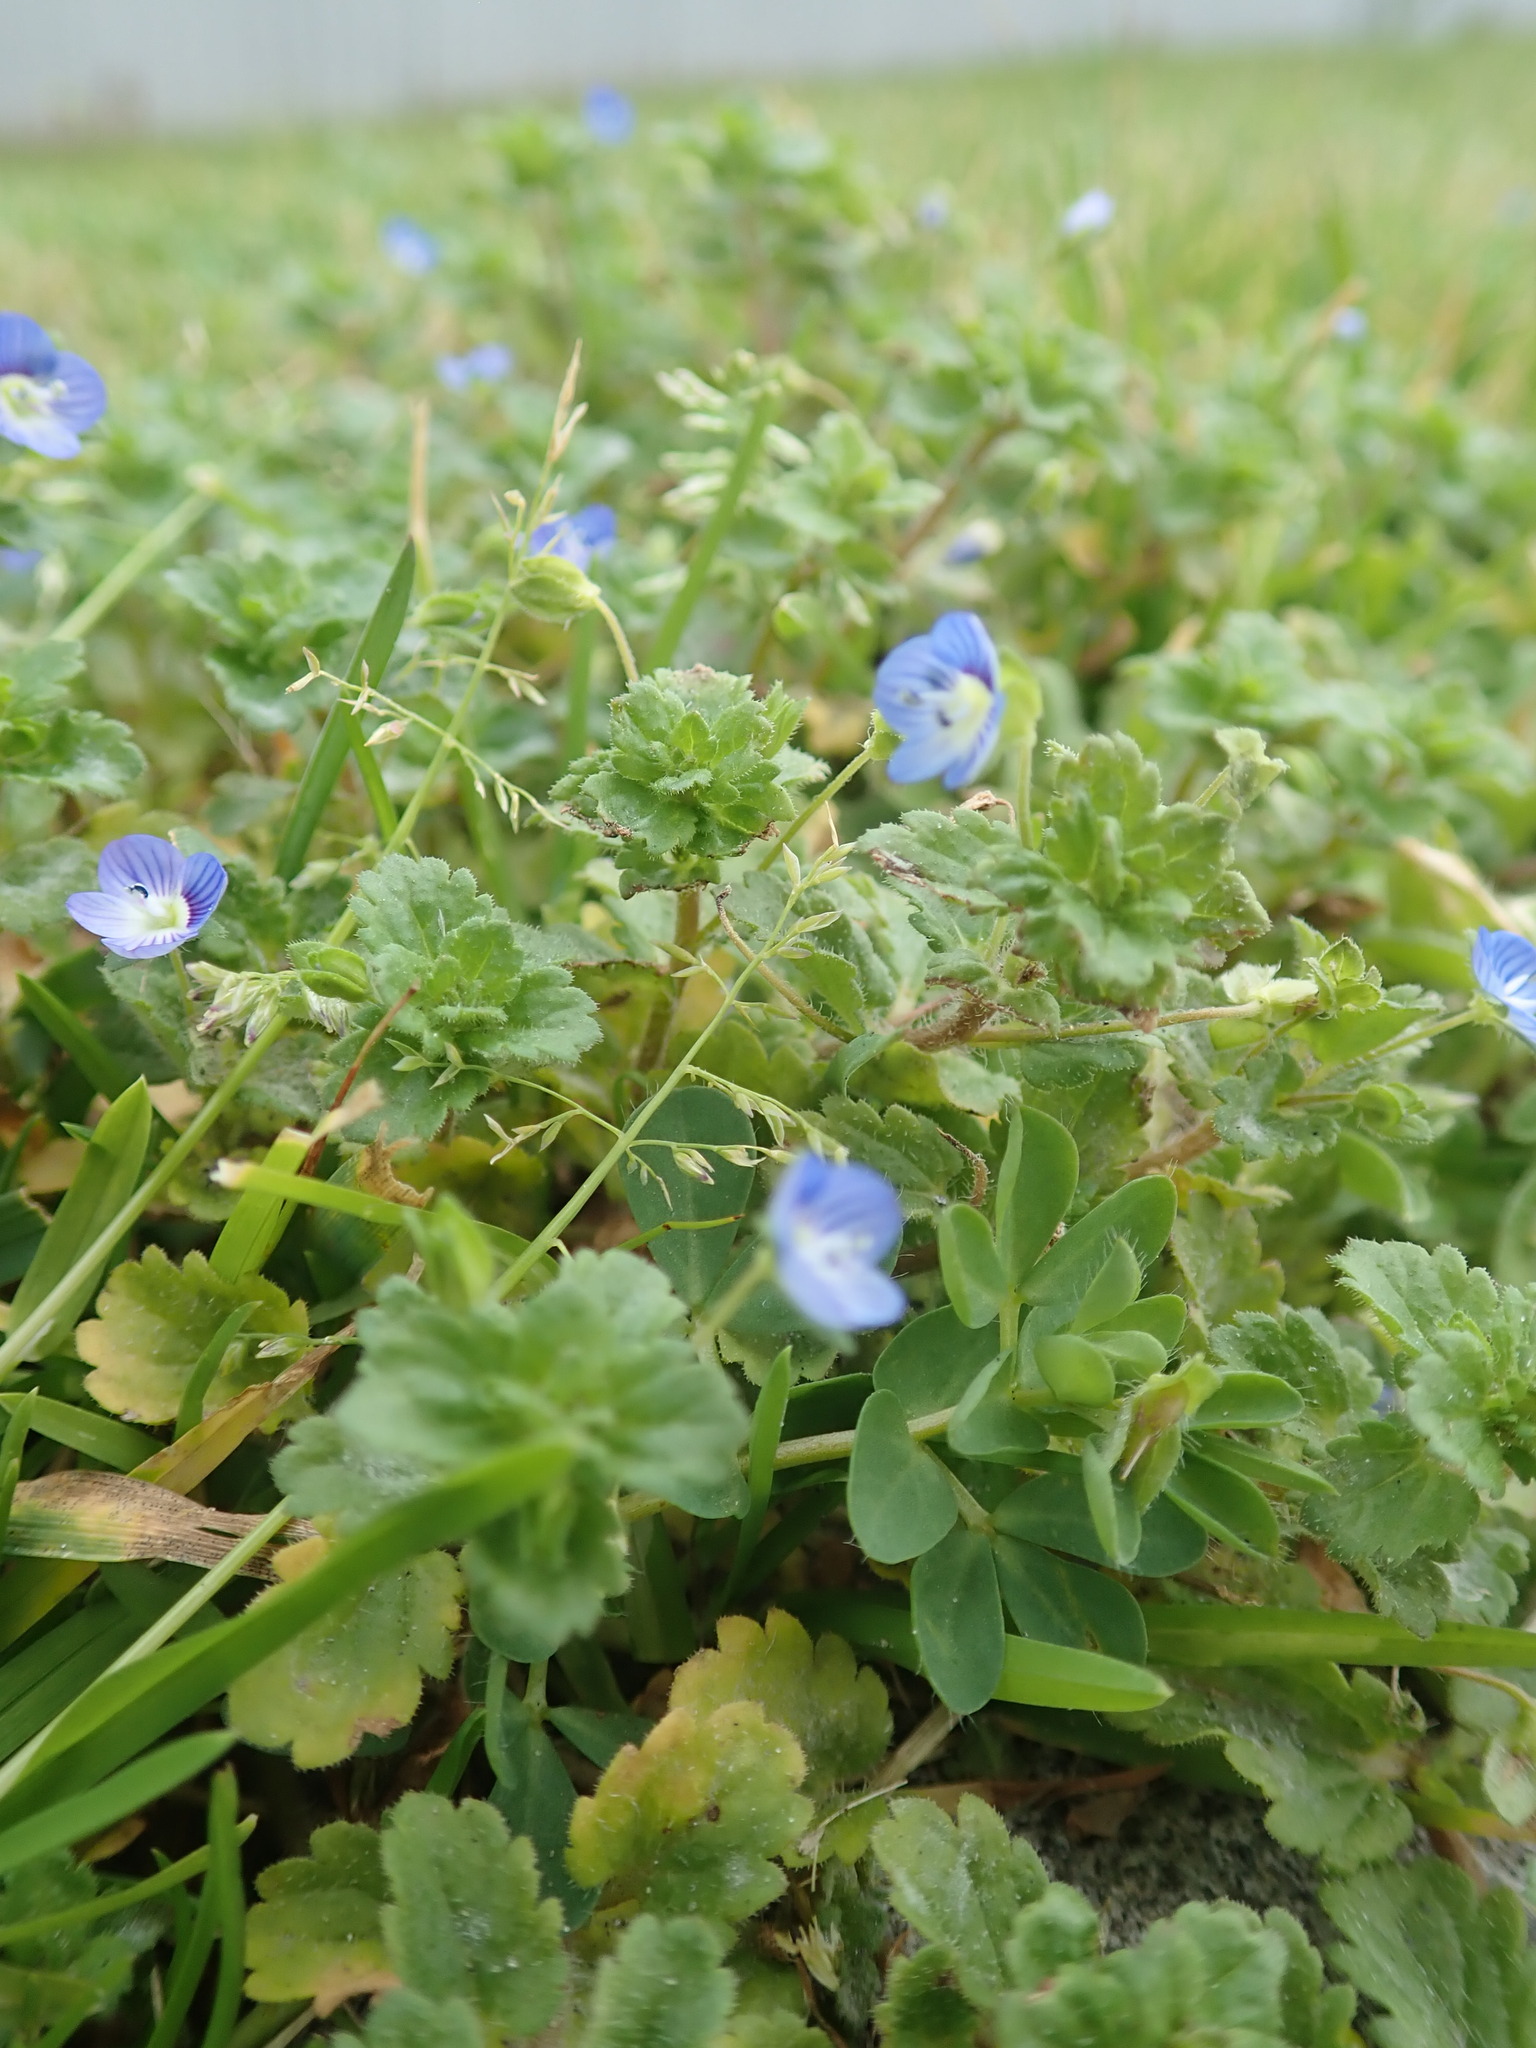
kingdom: Plantae
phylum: Tracheophyta
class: Magnoliopsida
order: Lamiales
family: Plantaginaceae
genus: Veronica
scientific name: Veronica persica
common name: Common field-speedwell
